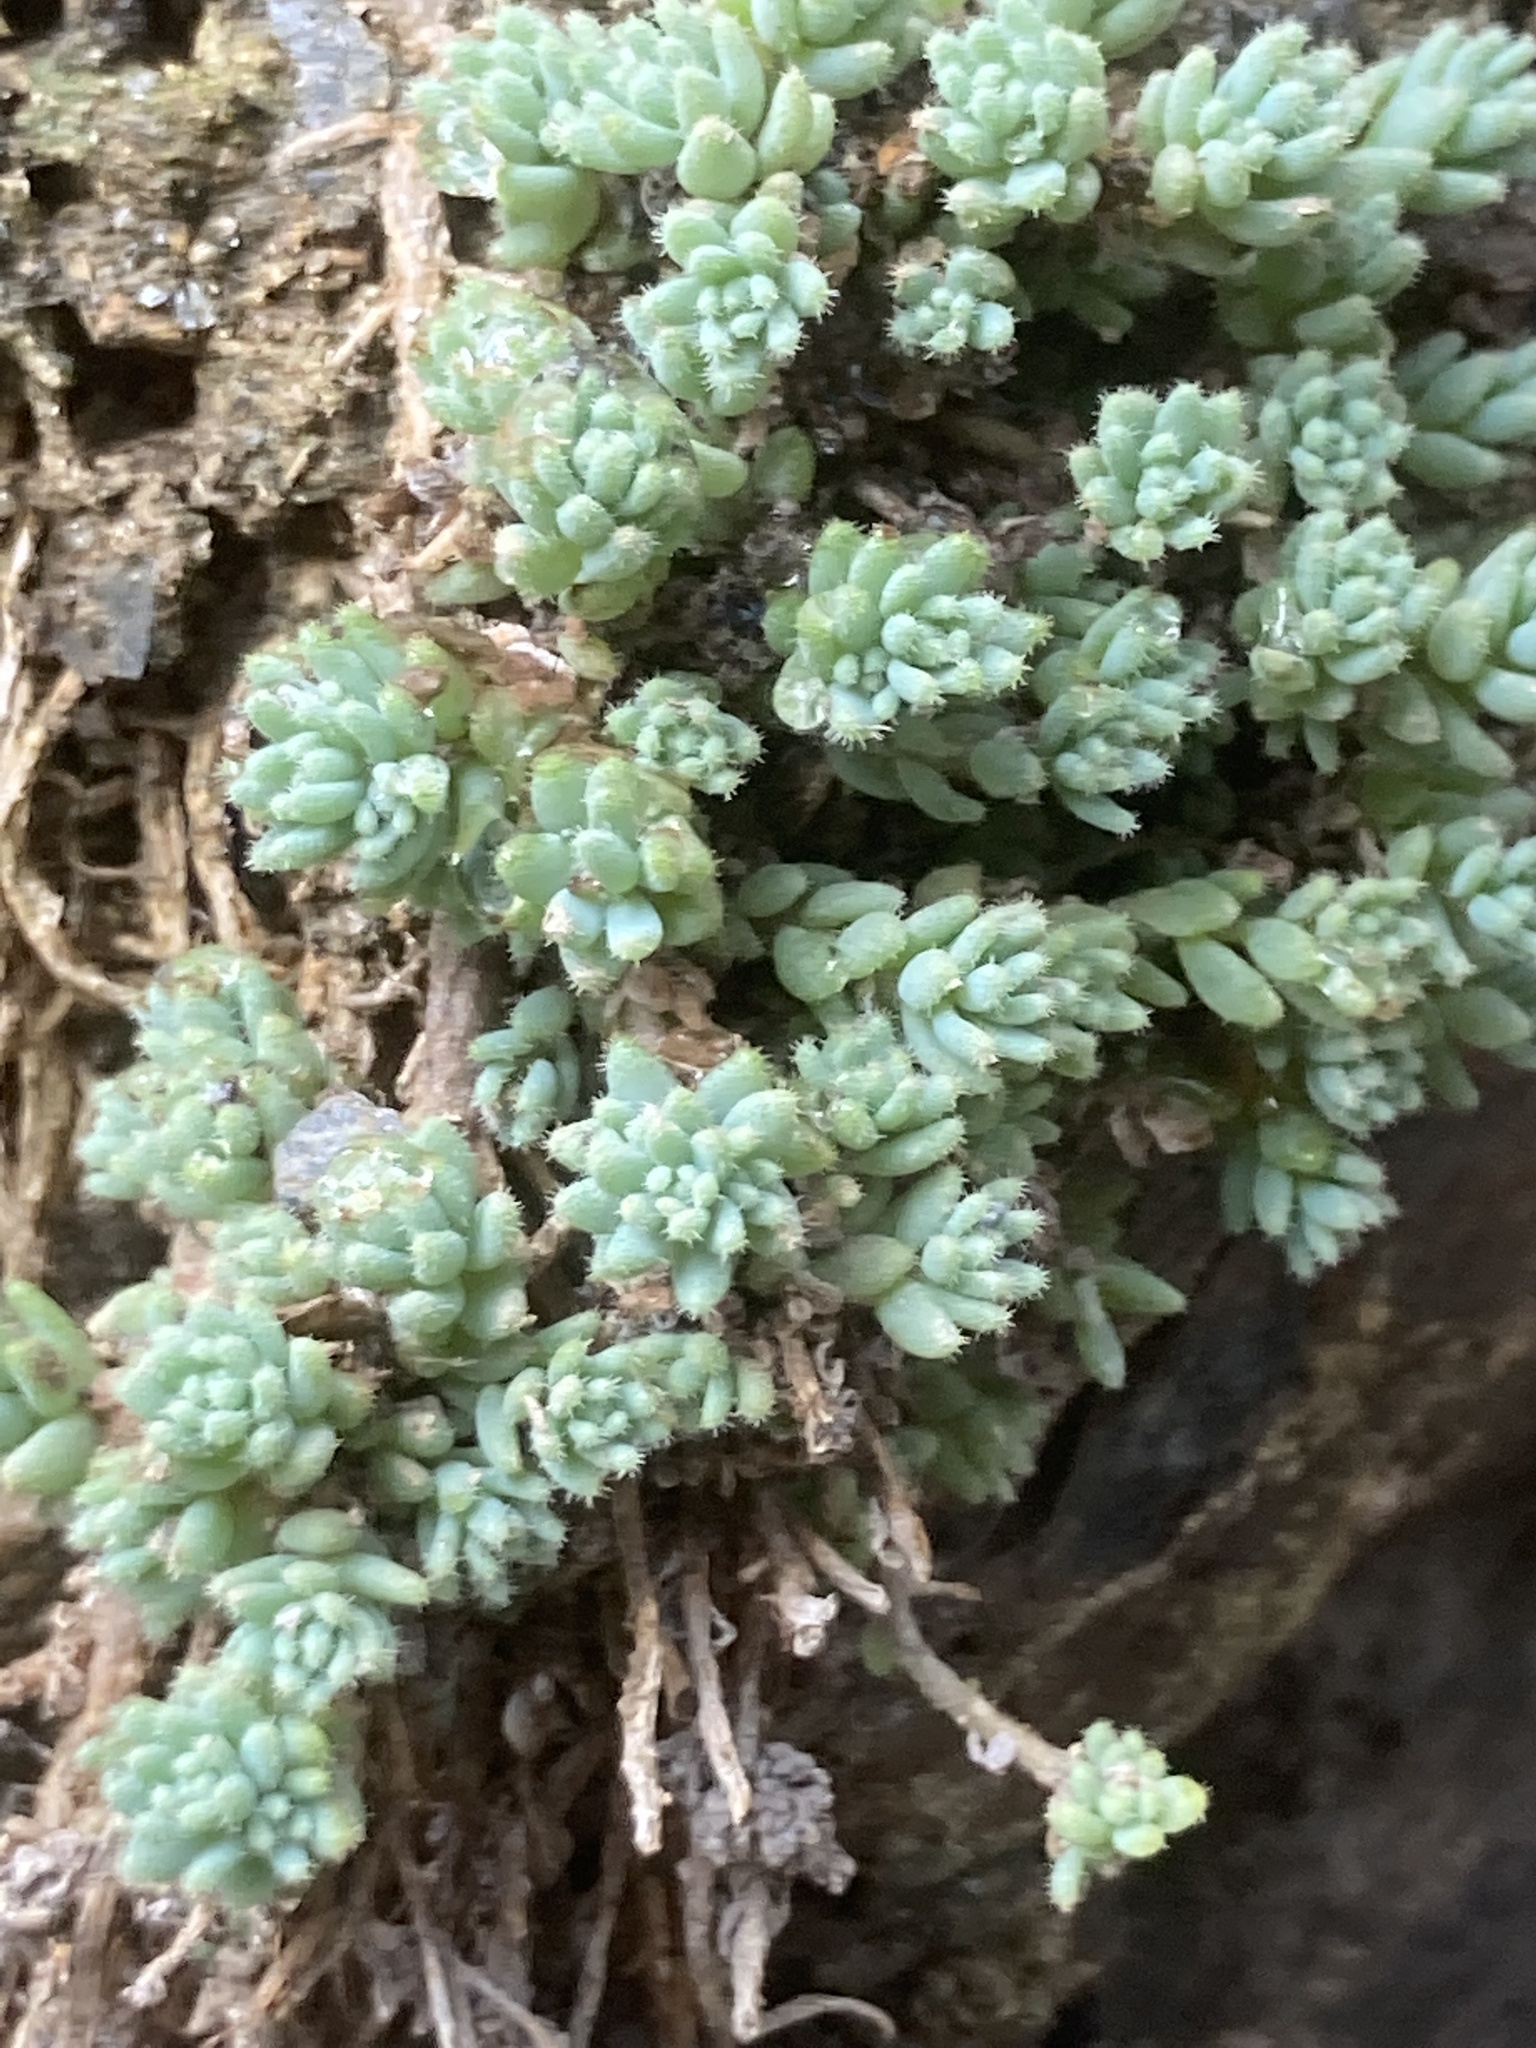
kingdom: Plantae
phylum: Tracheophyta
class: Magnoliopsida
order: Saxifragales
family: Crassulaceae
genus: Sedum
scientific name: Sedum dasyphyllum
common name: Thick-leaf stonecrop
